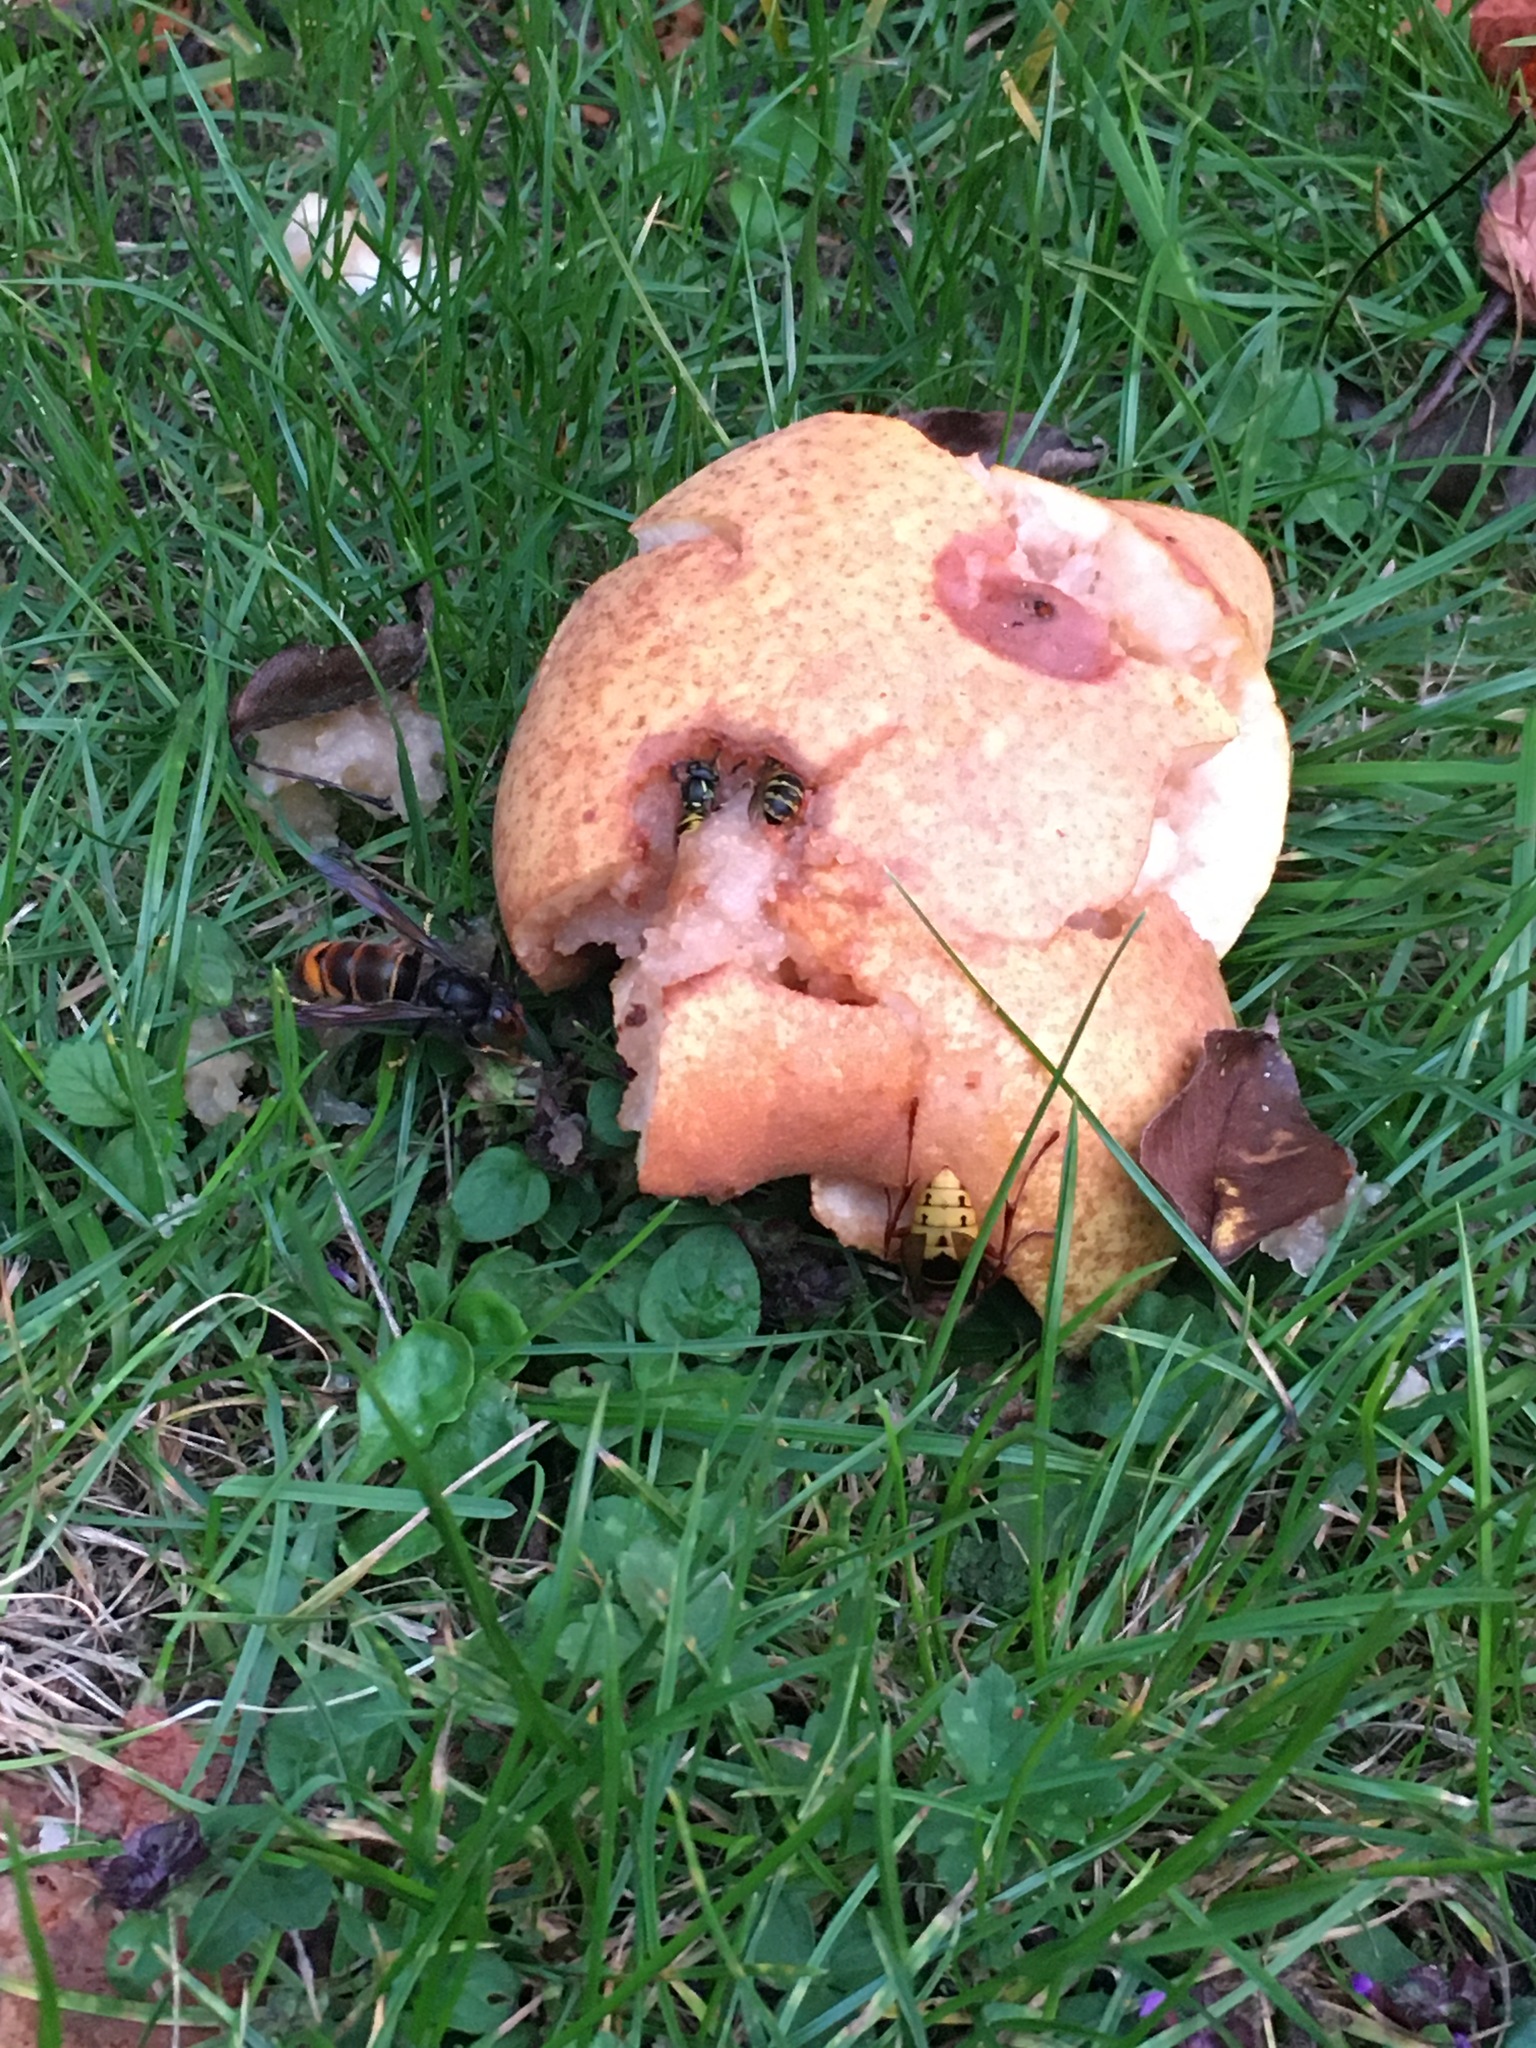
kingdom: Animalia
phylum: Arthropoda
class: Insecta
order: Hymenoptera
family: Vespidae
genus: Vespa
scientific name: Vespa velutina
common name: Asian hornet
